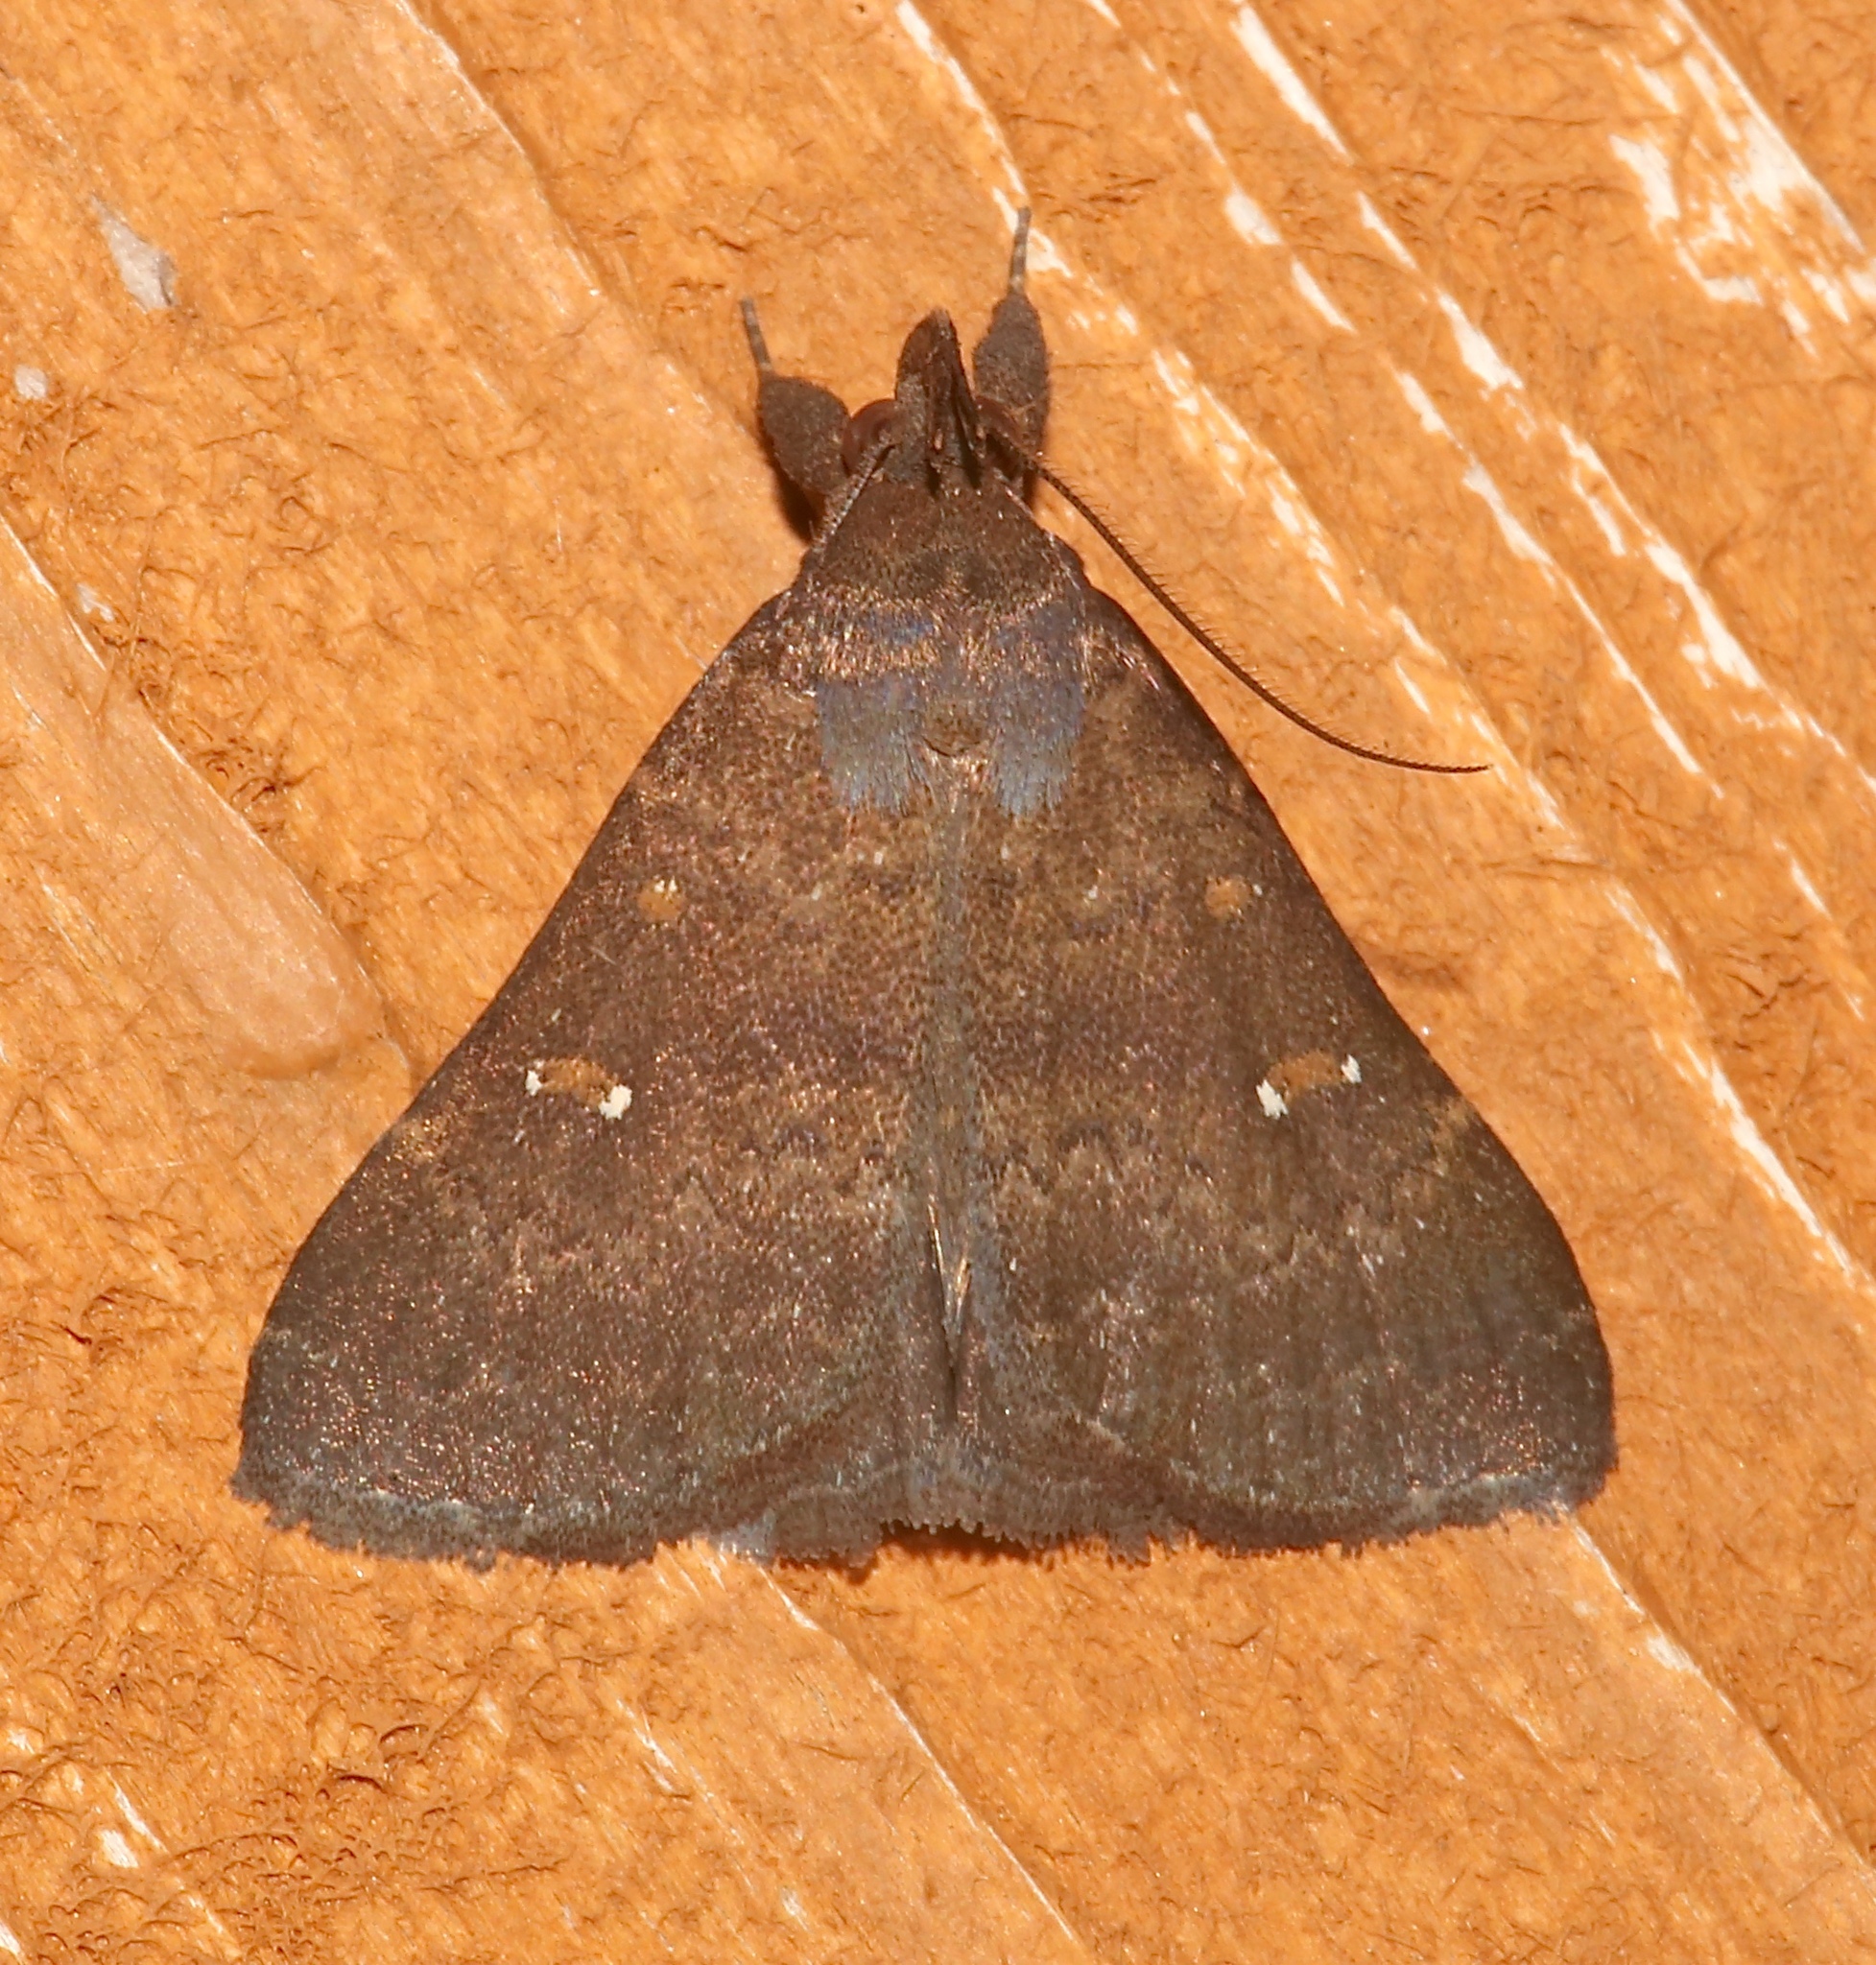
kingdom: Animalia
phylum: Arthropoda
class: Insecta
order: Lepidoptera
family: Erebidae
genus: Hypenula
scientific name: Hypenula cacuminalis
